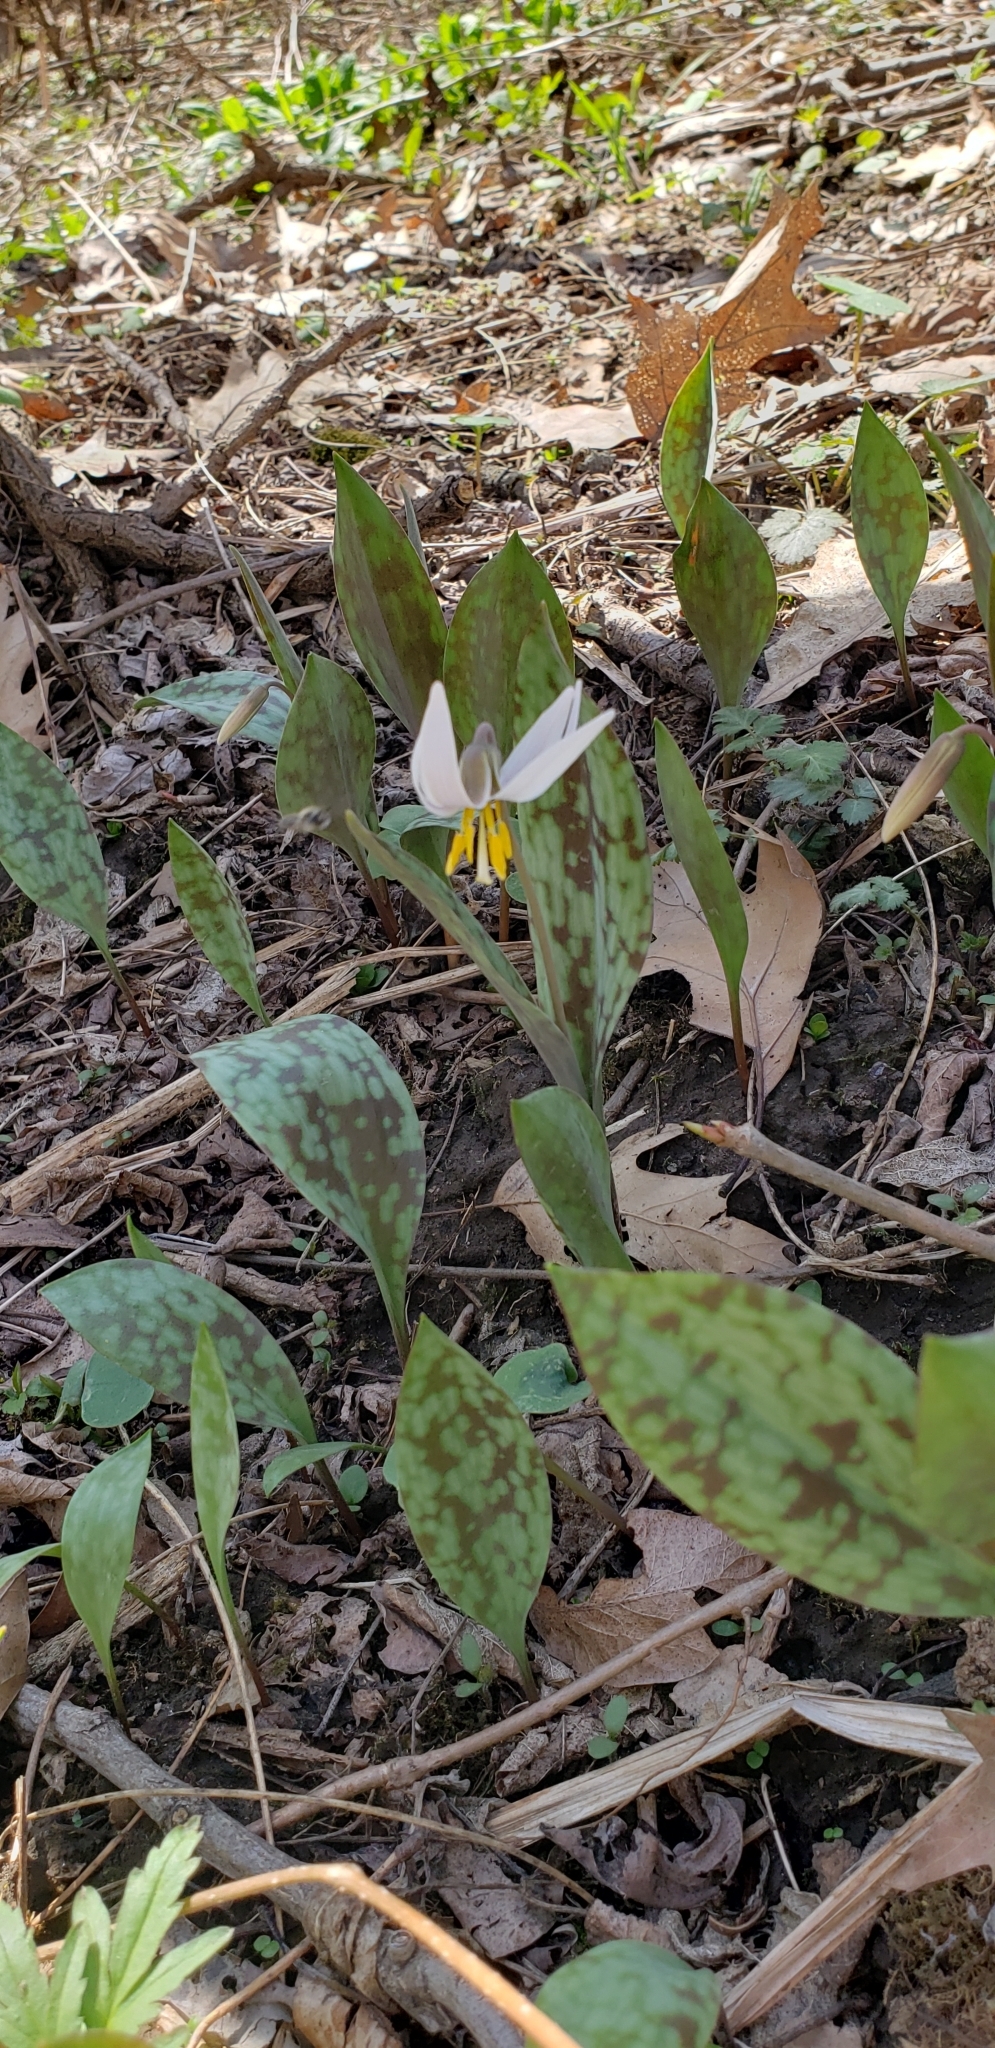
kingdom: Plantae
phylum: Tracheophyta
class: Liliopsida
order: Liliales
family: Liliaceae
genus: Erythronium
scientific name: Erythronium albidum
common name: White trout-lily
